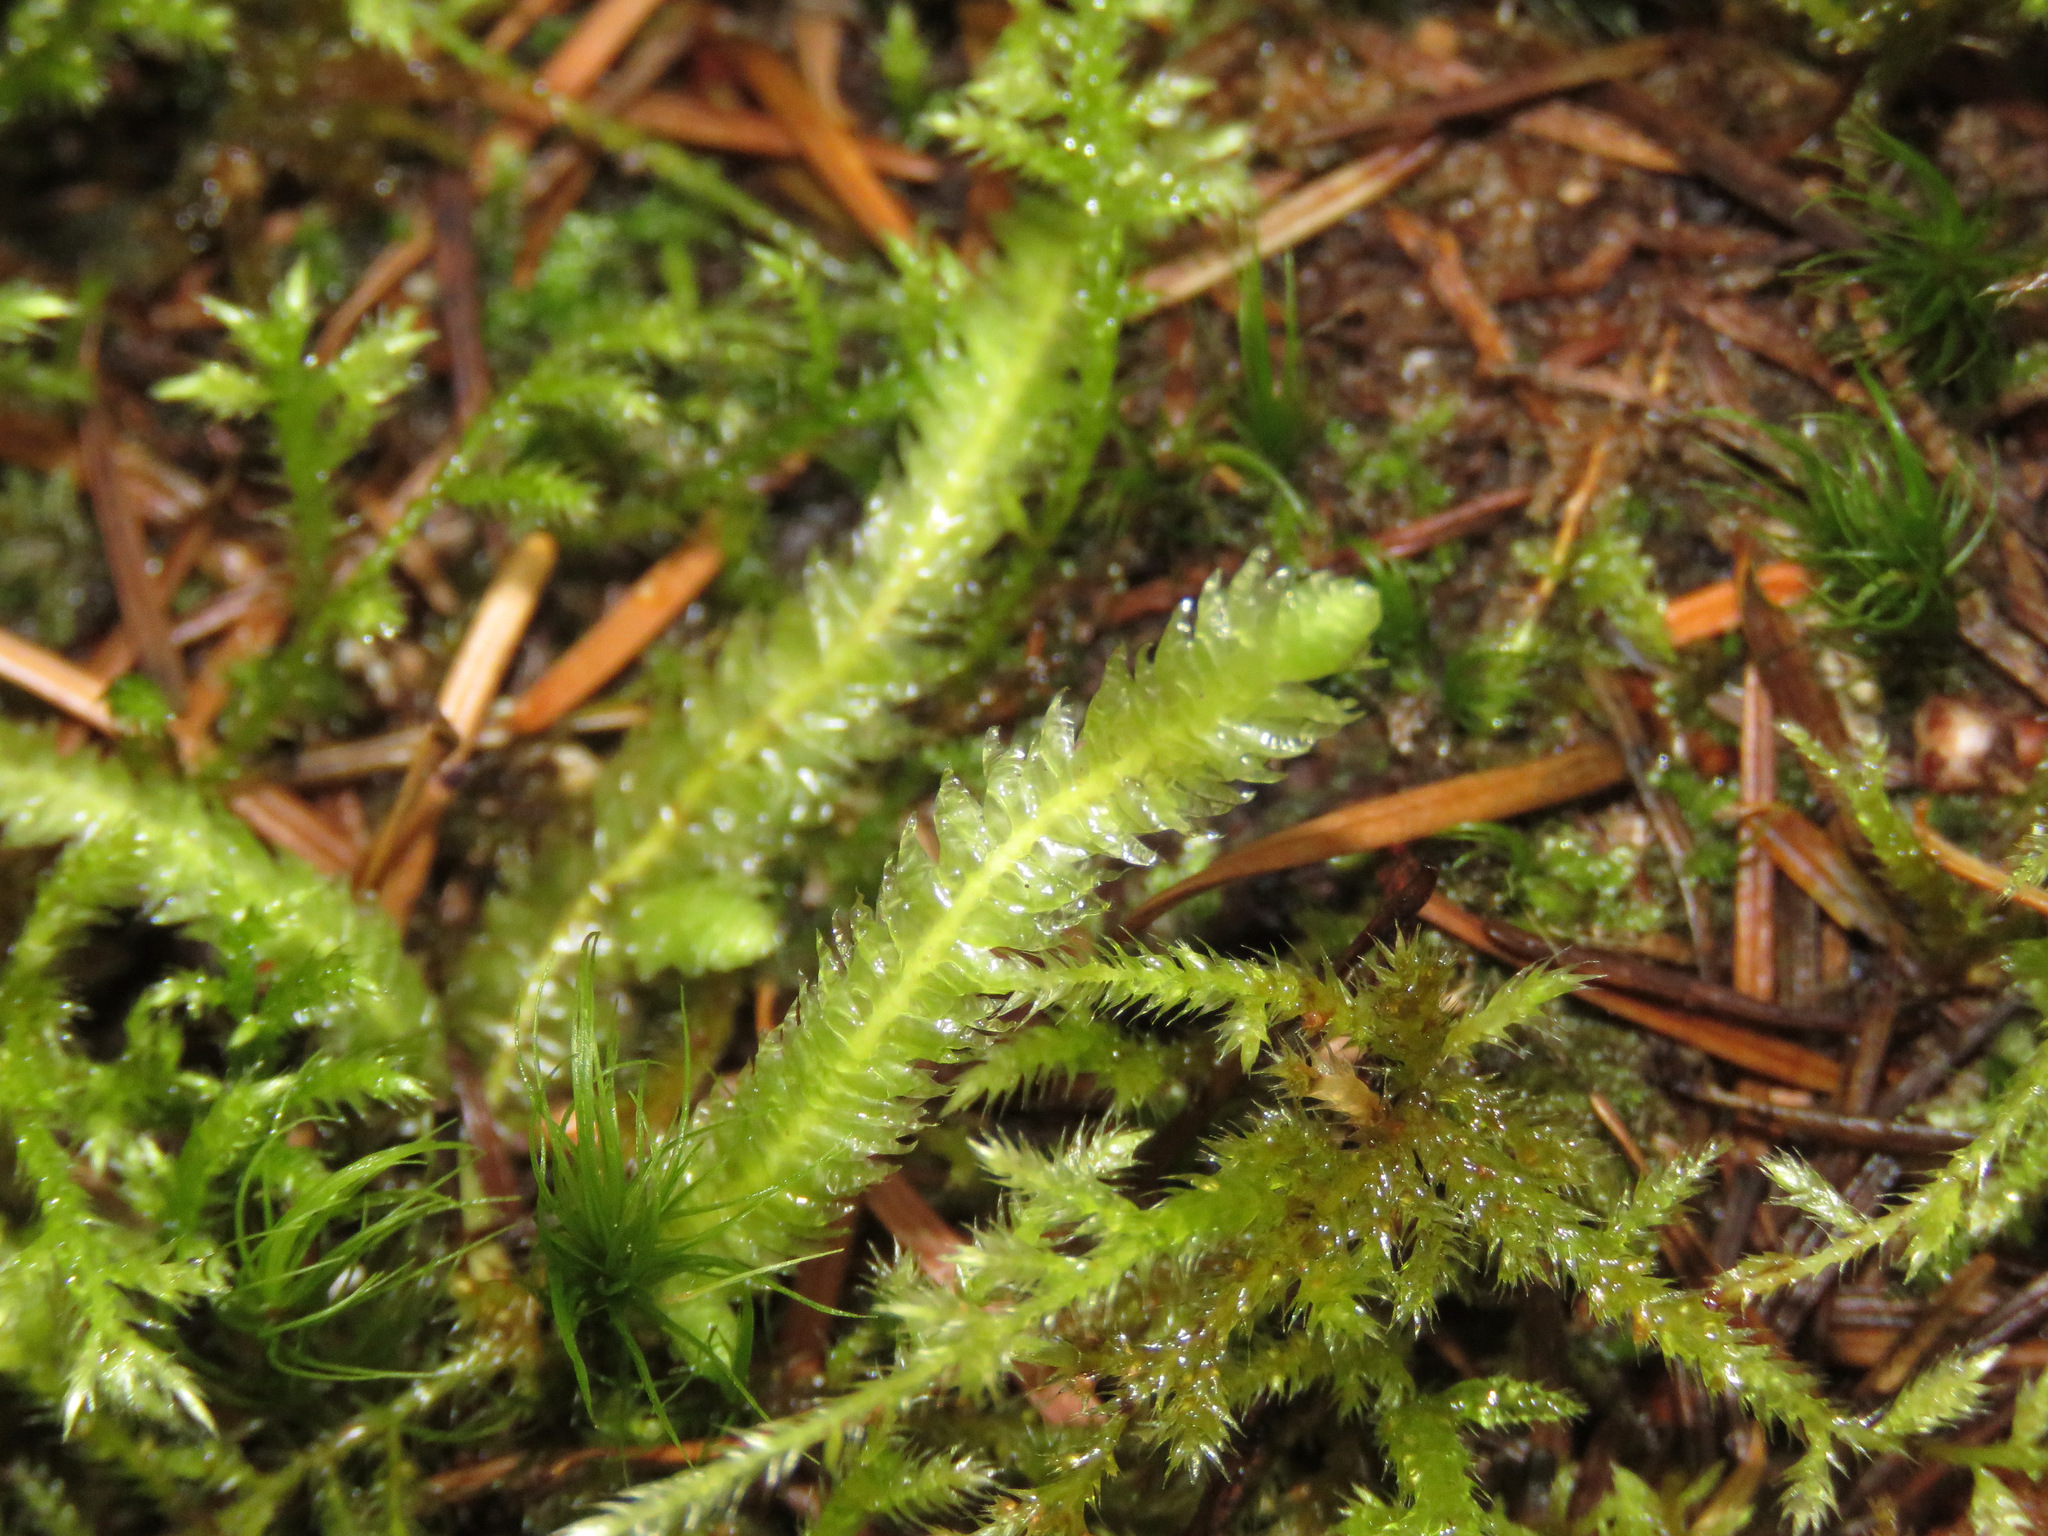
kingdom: Plantae
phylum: Bryophyta
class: Bryopsida
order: Hypnales
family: Plagiotheciaceae
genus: Plagiothecium
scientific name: Plagiothecium undulatum
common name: Waved silk-moss
